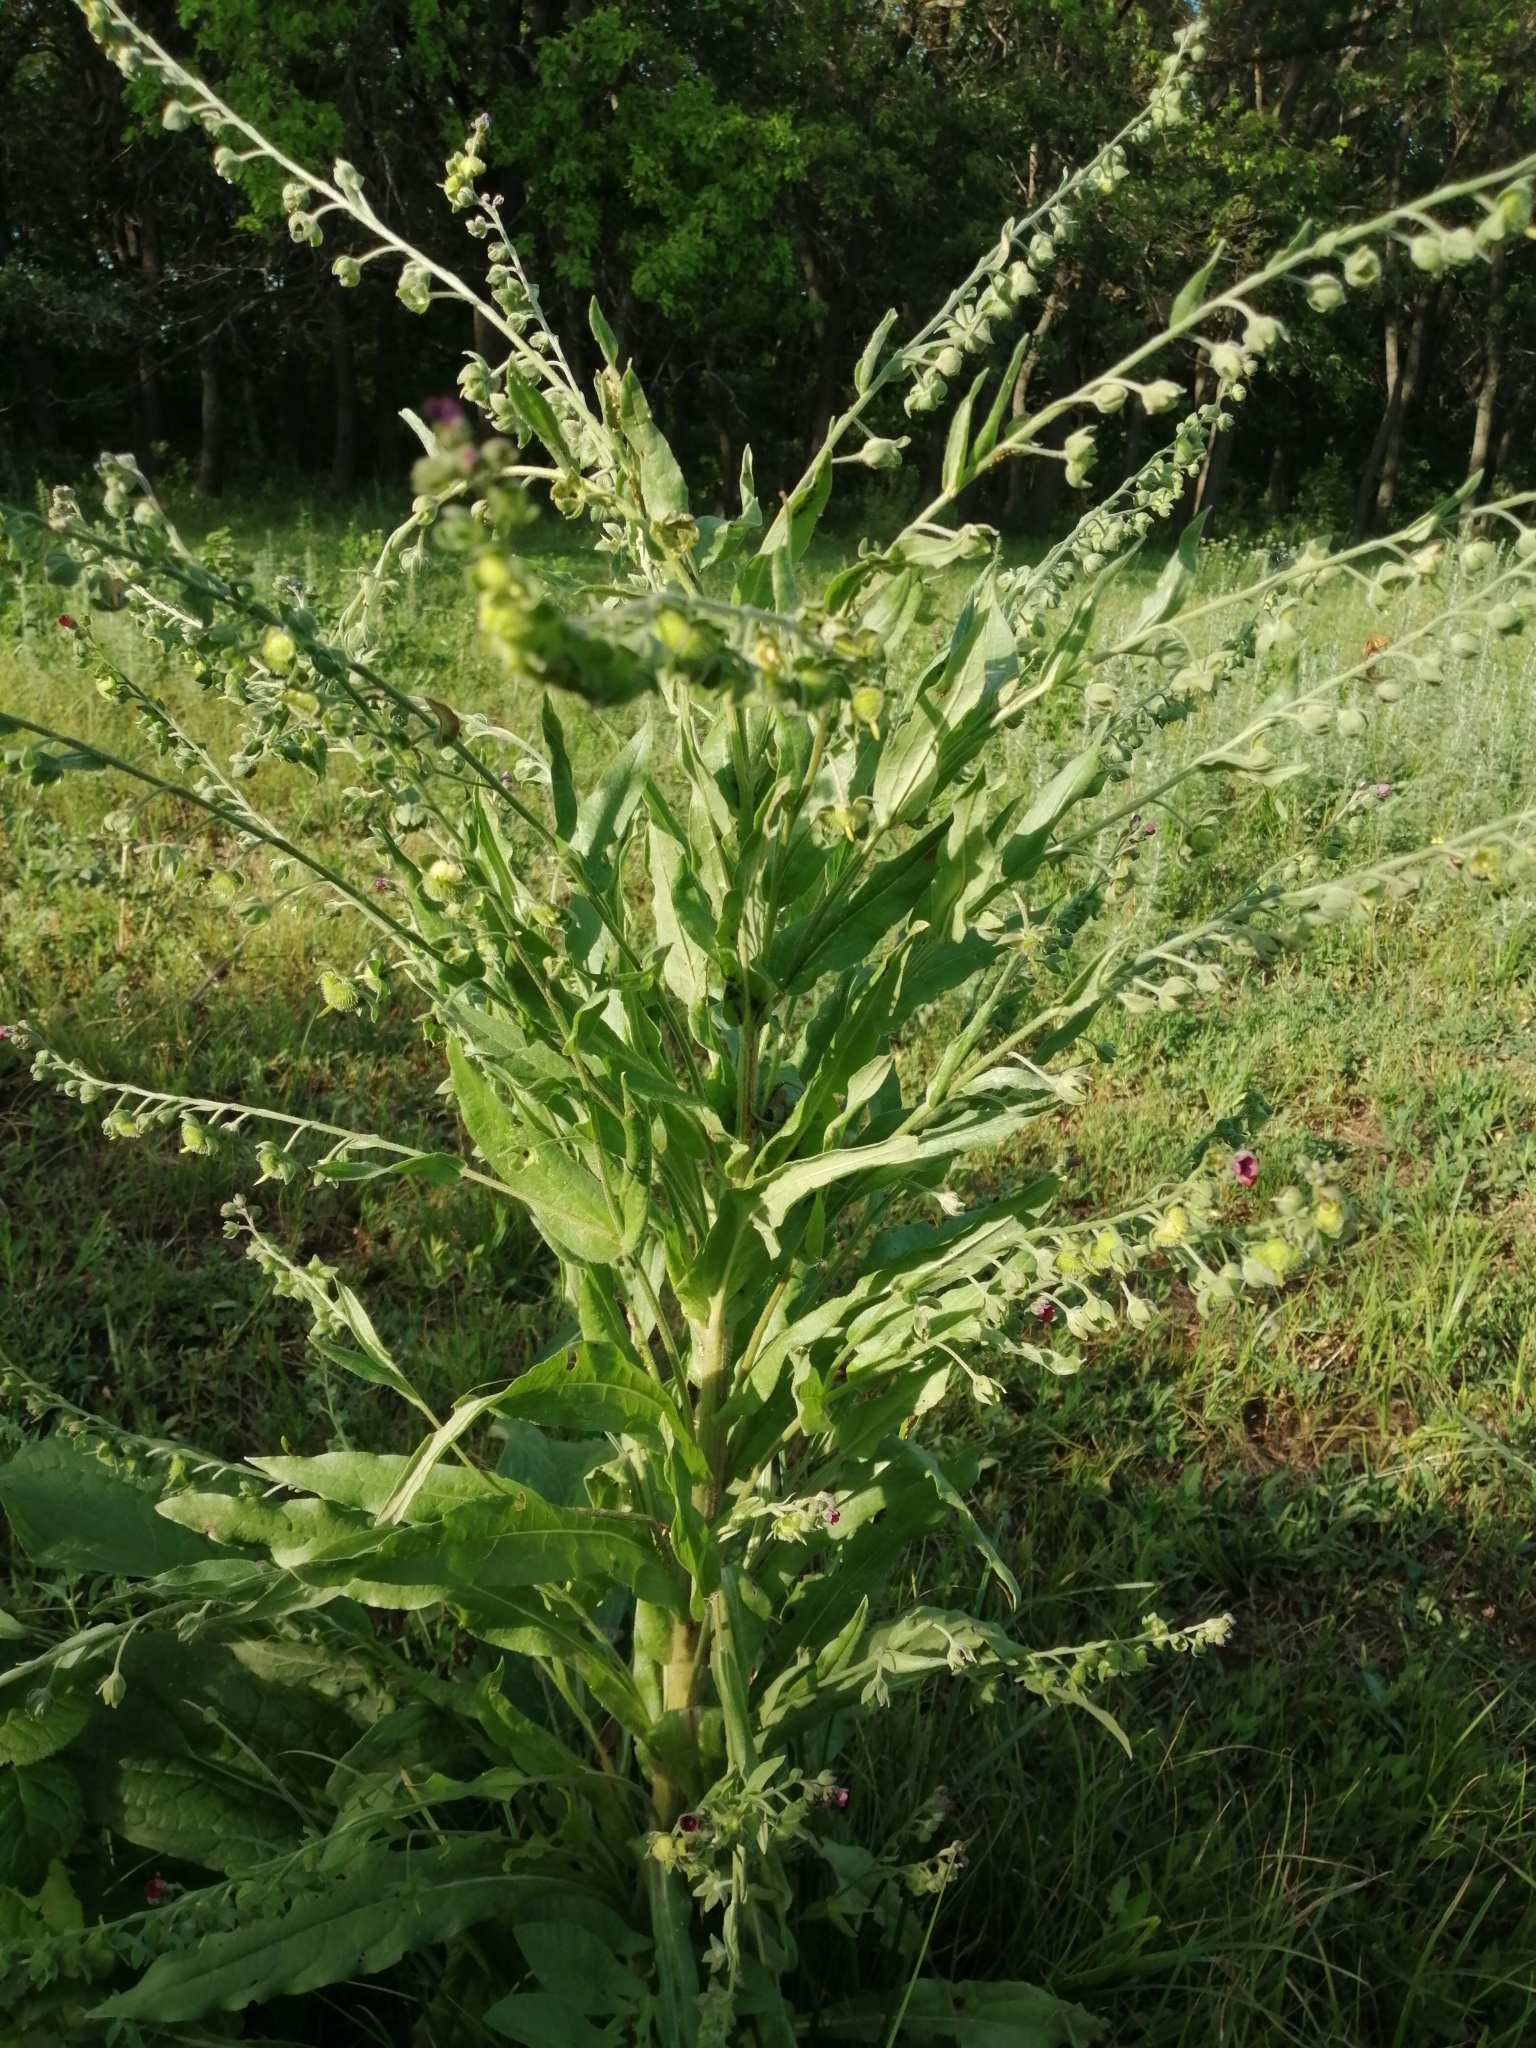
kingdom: Plantae
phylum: Tracheophyta
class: Magnoliopsida
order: Boraginales
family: Boraginaceae
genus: Cynoglossum
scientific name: Cynoglossum officinale
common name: Hound's-tongue
